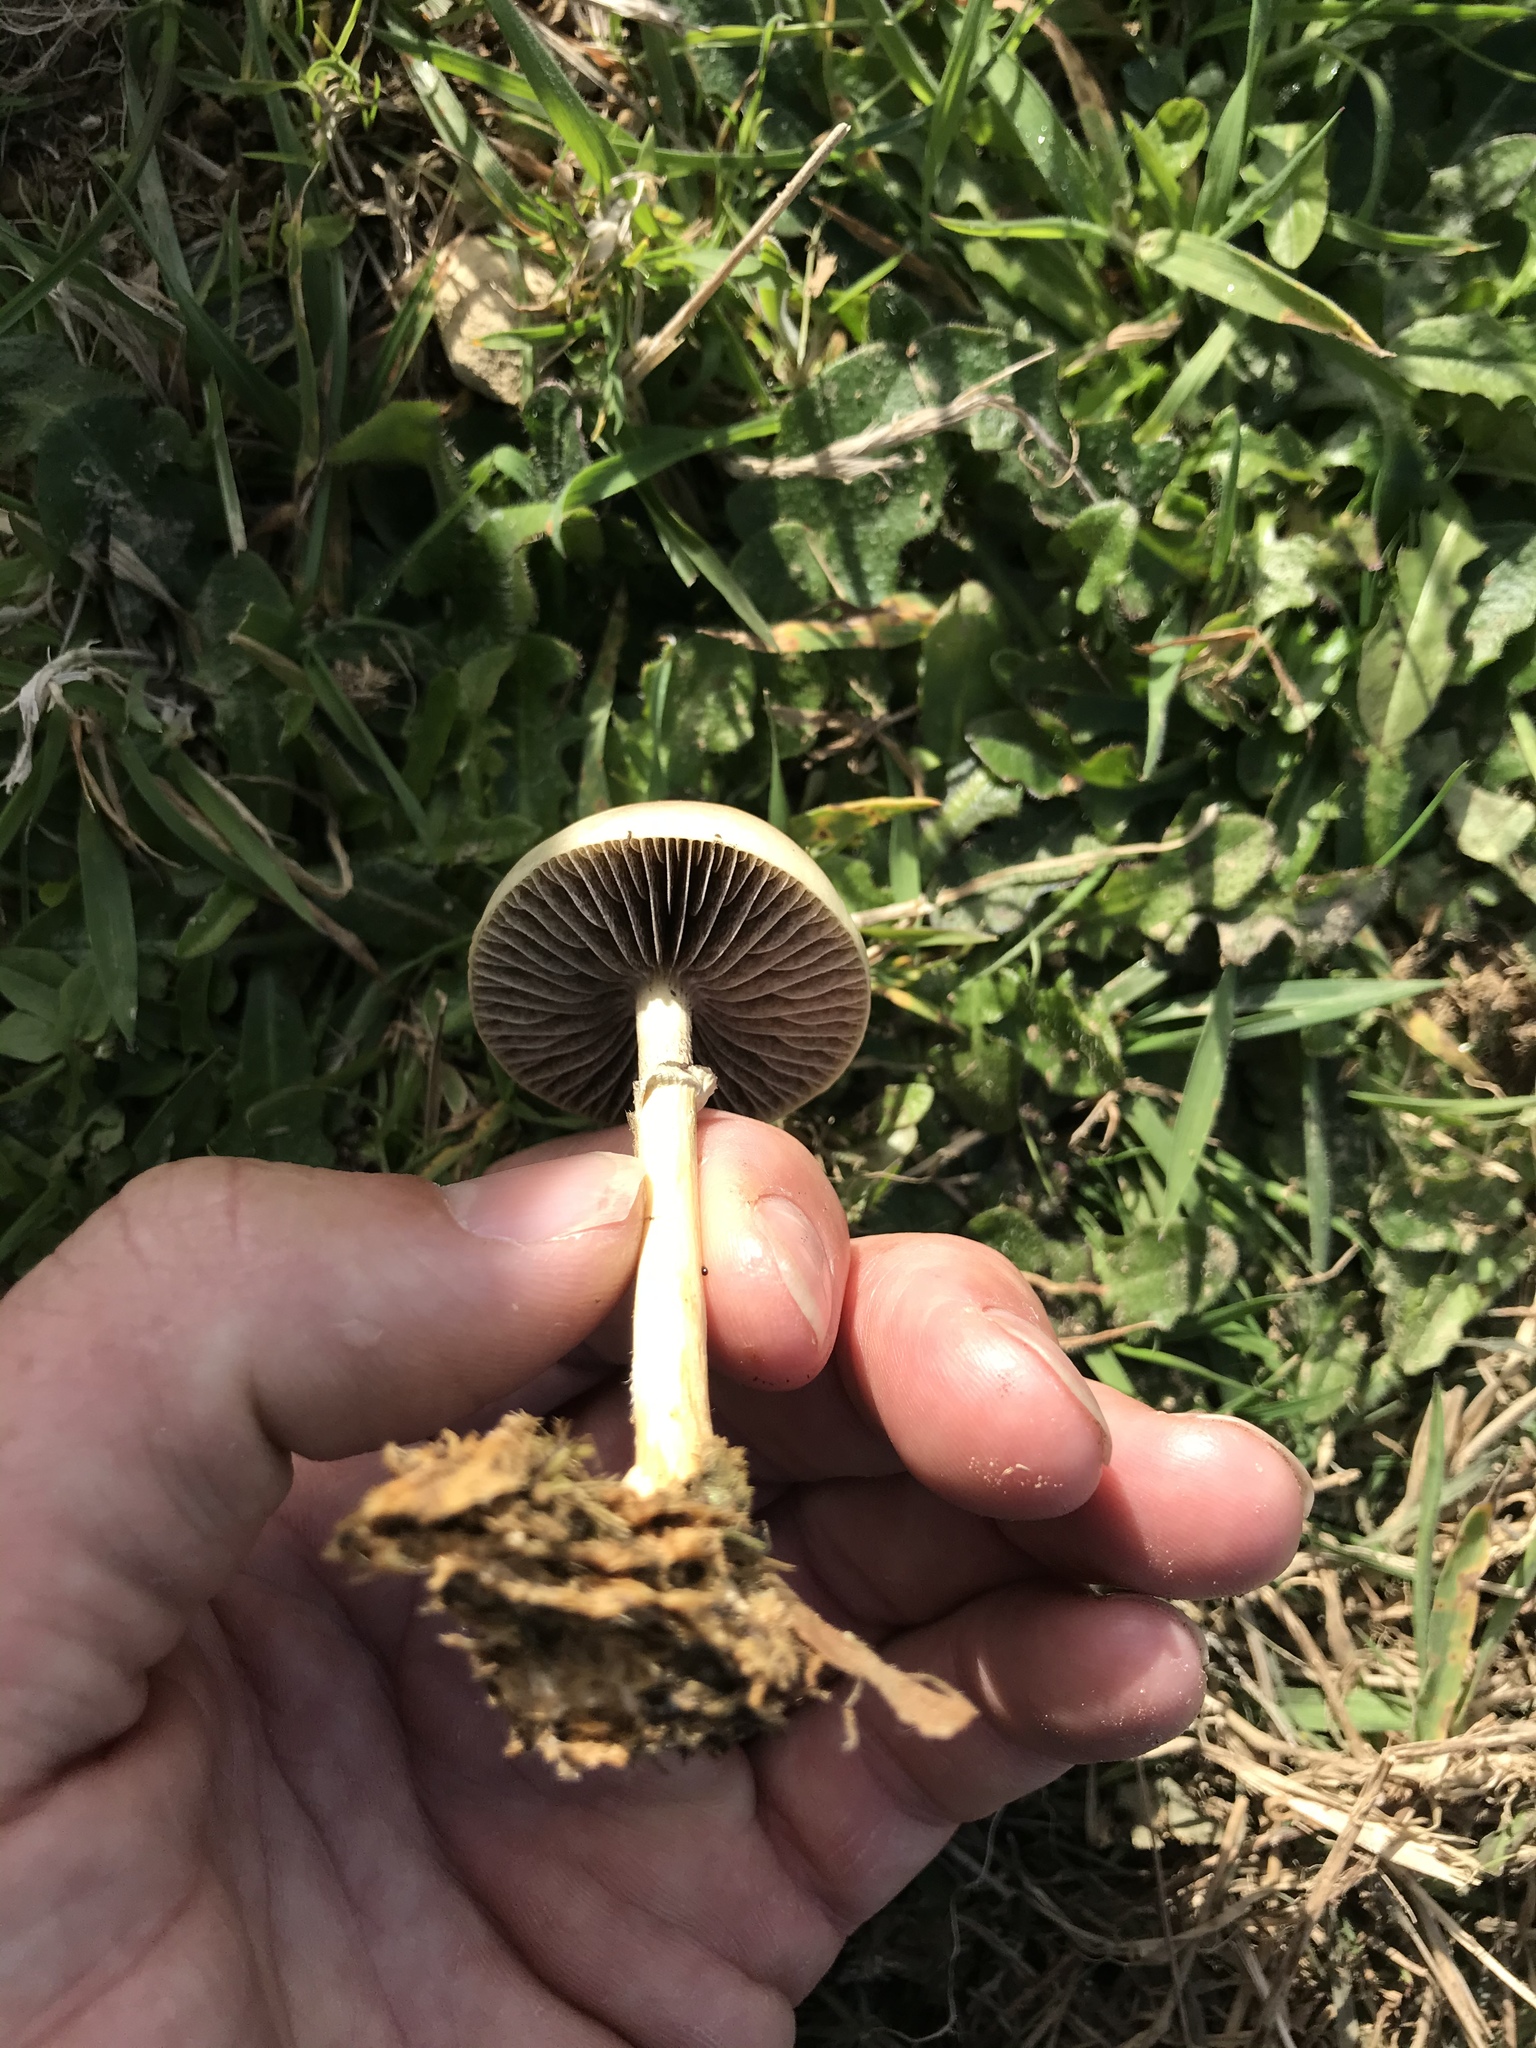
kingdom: Fungi
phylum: Basidiomycota
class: Agaricomycetes
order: Agaricales
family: Strophariaceae
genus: Protostropharia
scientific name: Protostropharia semiglobata
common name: Dung roundhead
